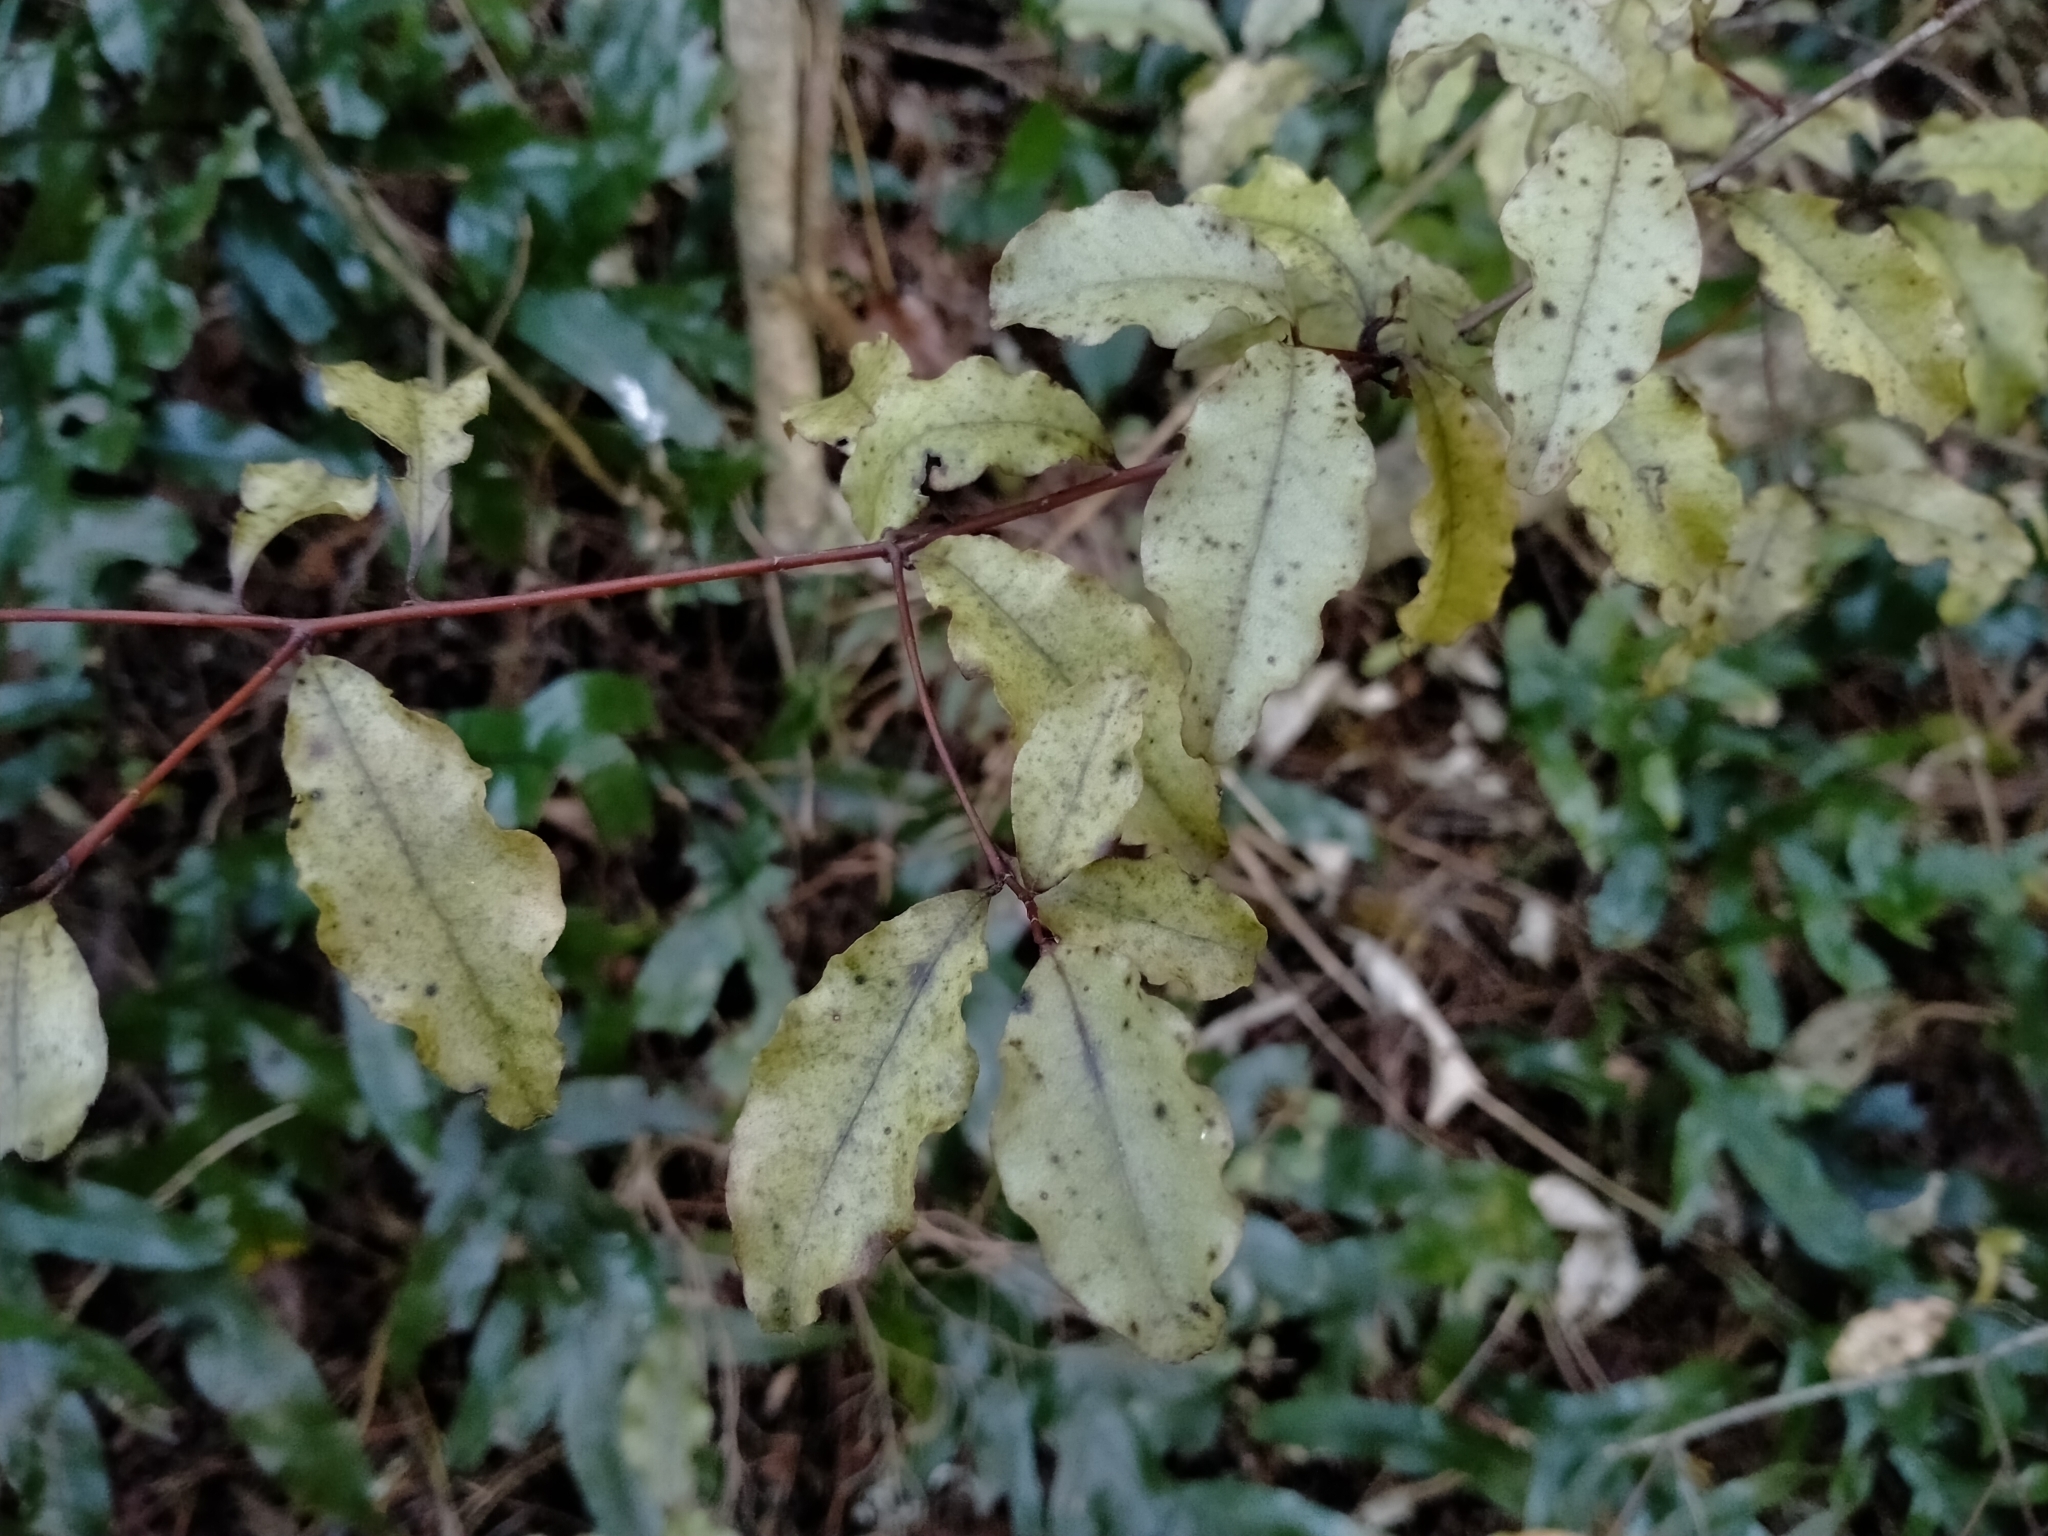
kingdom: Plantae
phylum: Tracheophyta
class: Magnoliopsida
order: Ericales
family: Primulaceae
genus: Myrsine
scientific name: Myrsine australis
